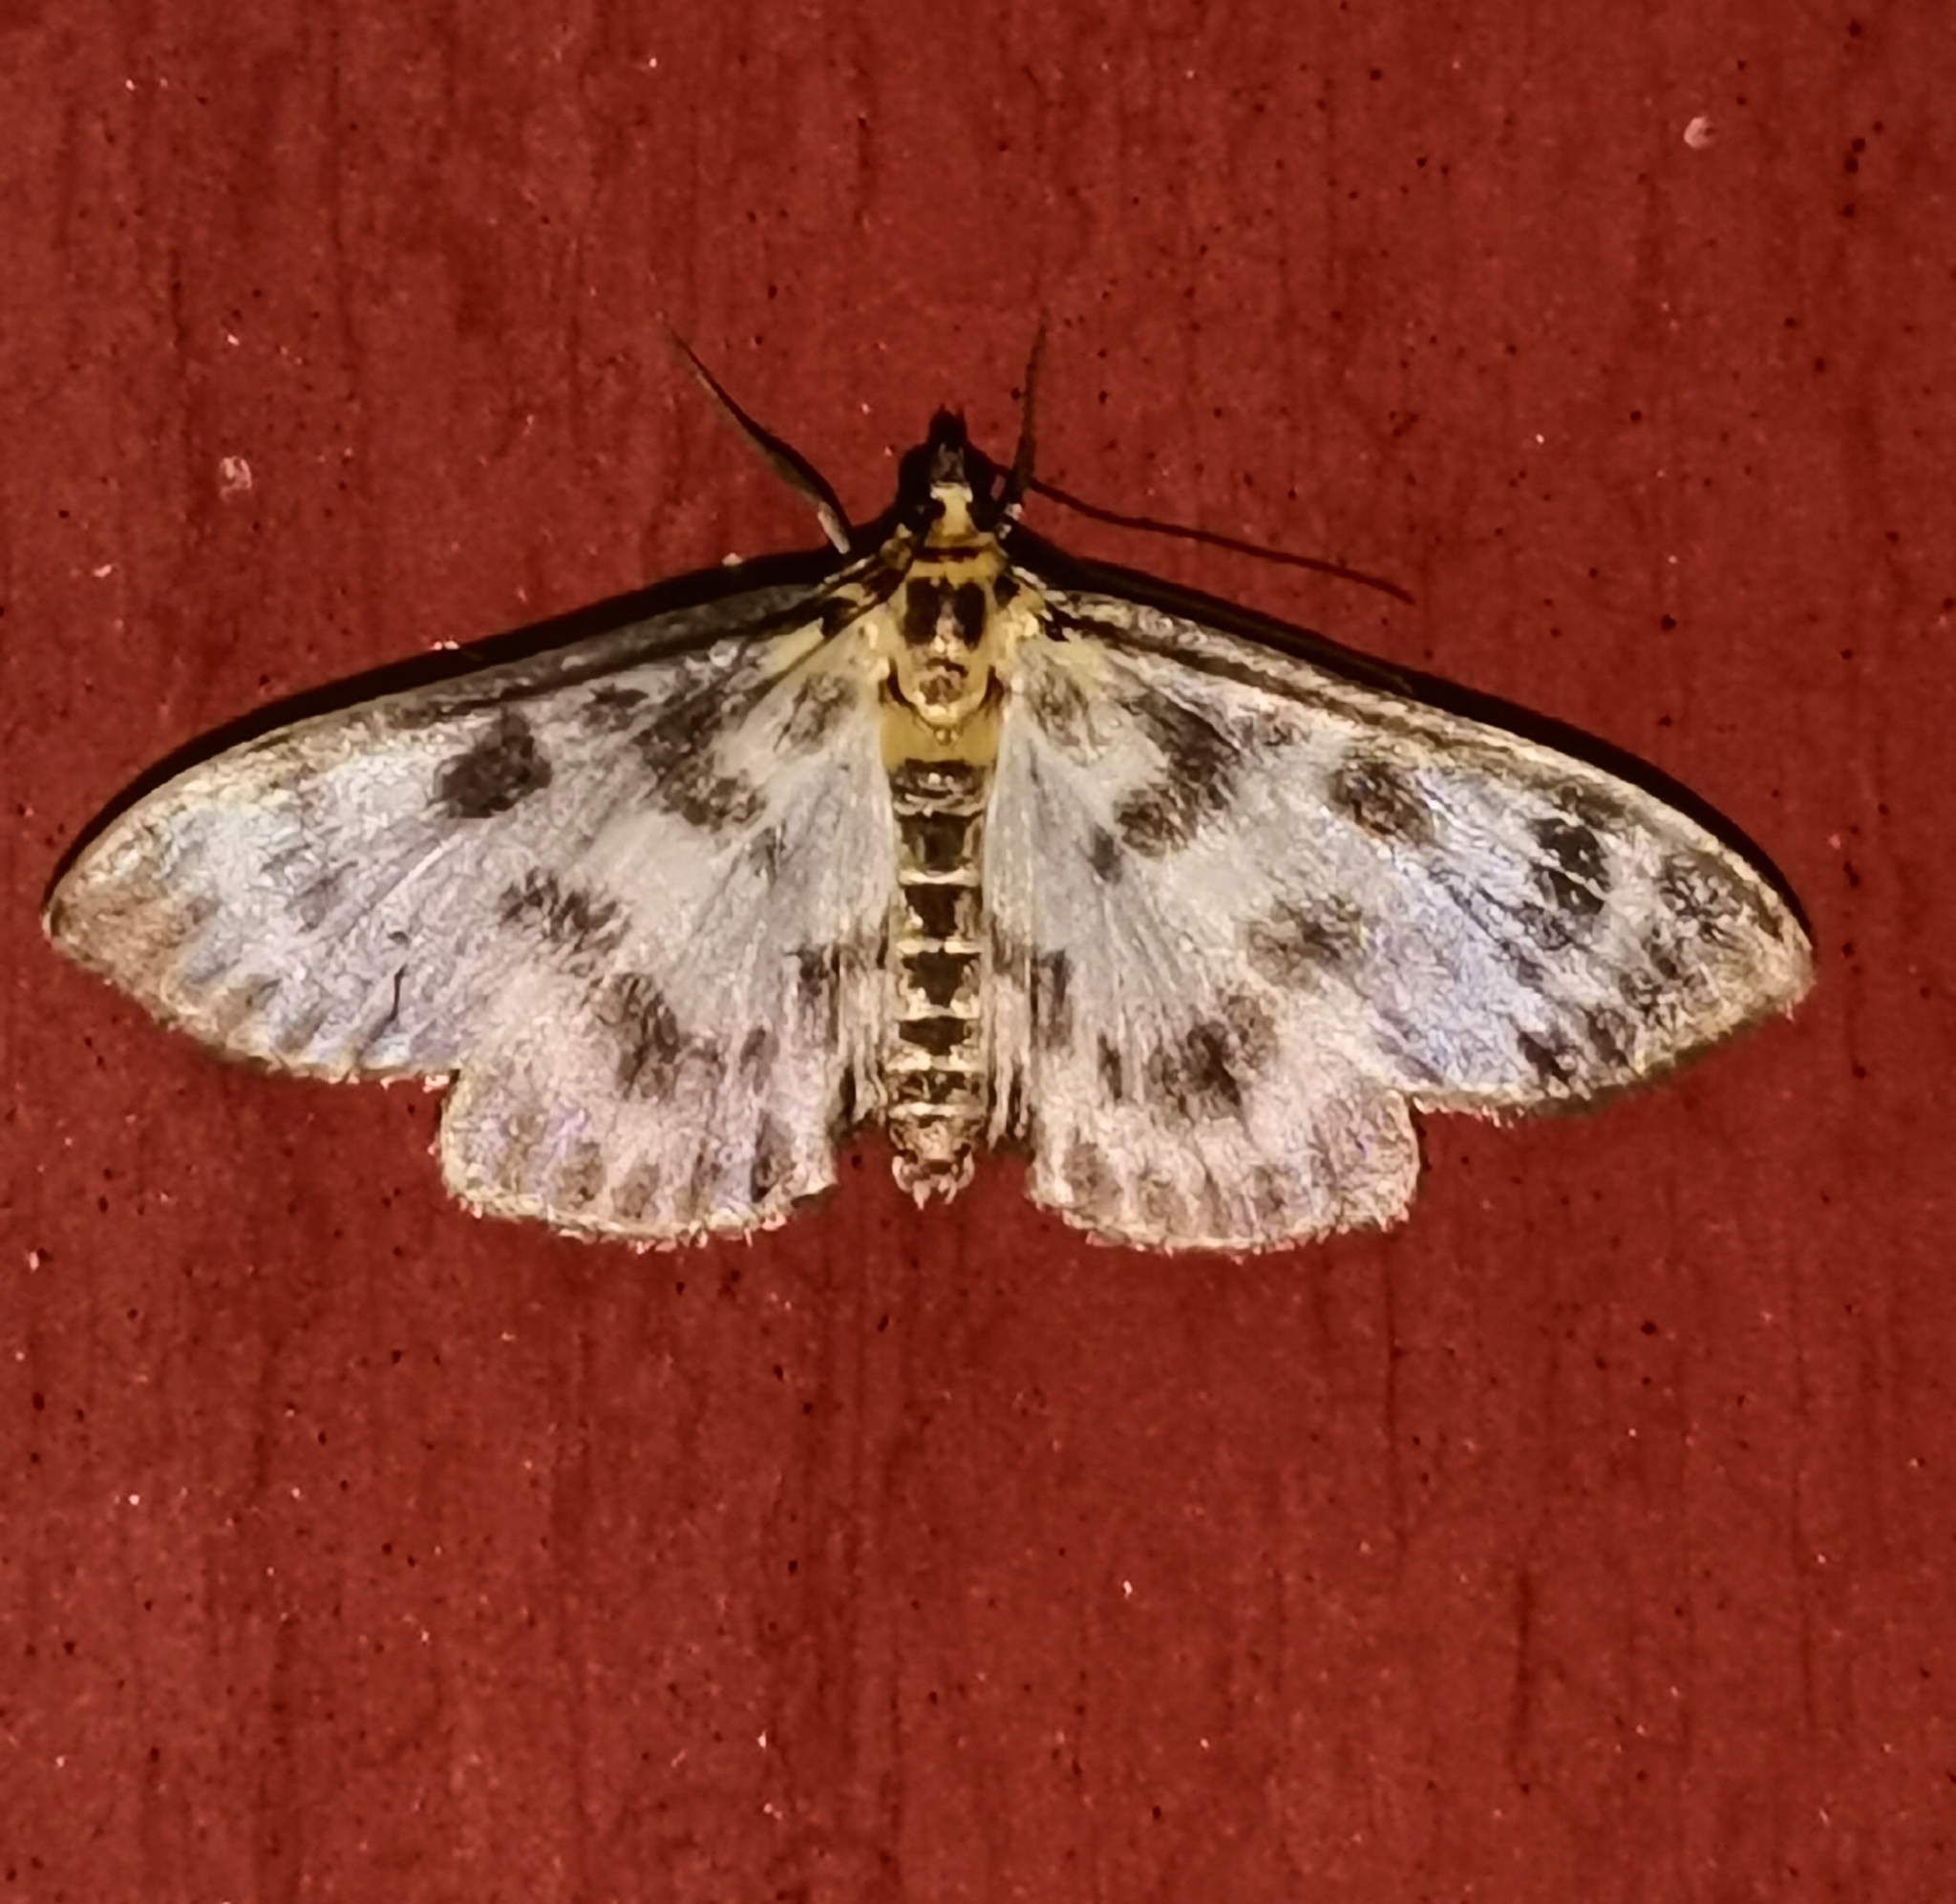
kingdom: Animalia
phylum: Arthropoda
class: Insecta
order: Lepidoptera
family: Crambidae
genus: Anania
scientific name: Anania hortulata
